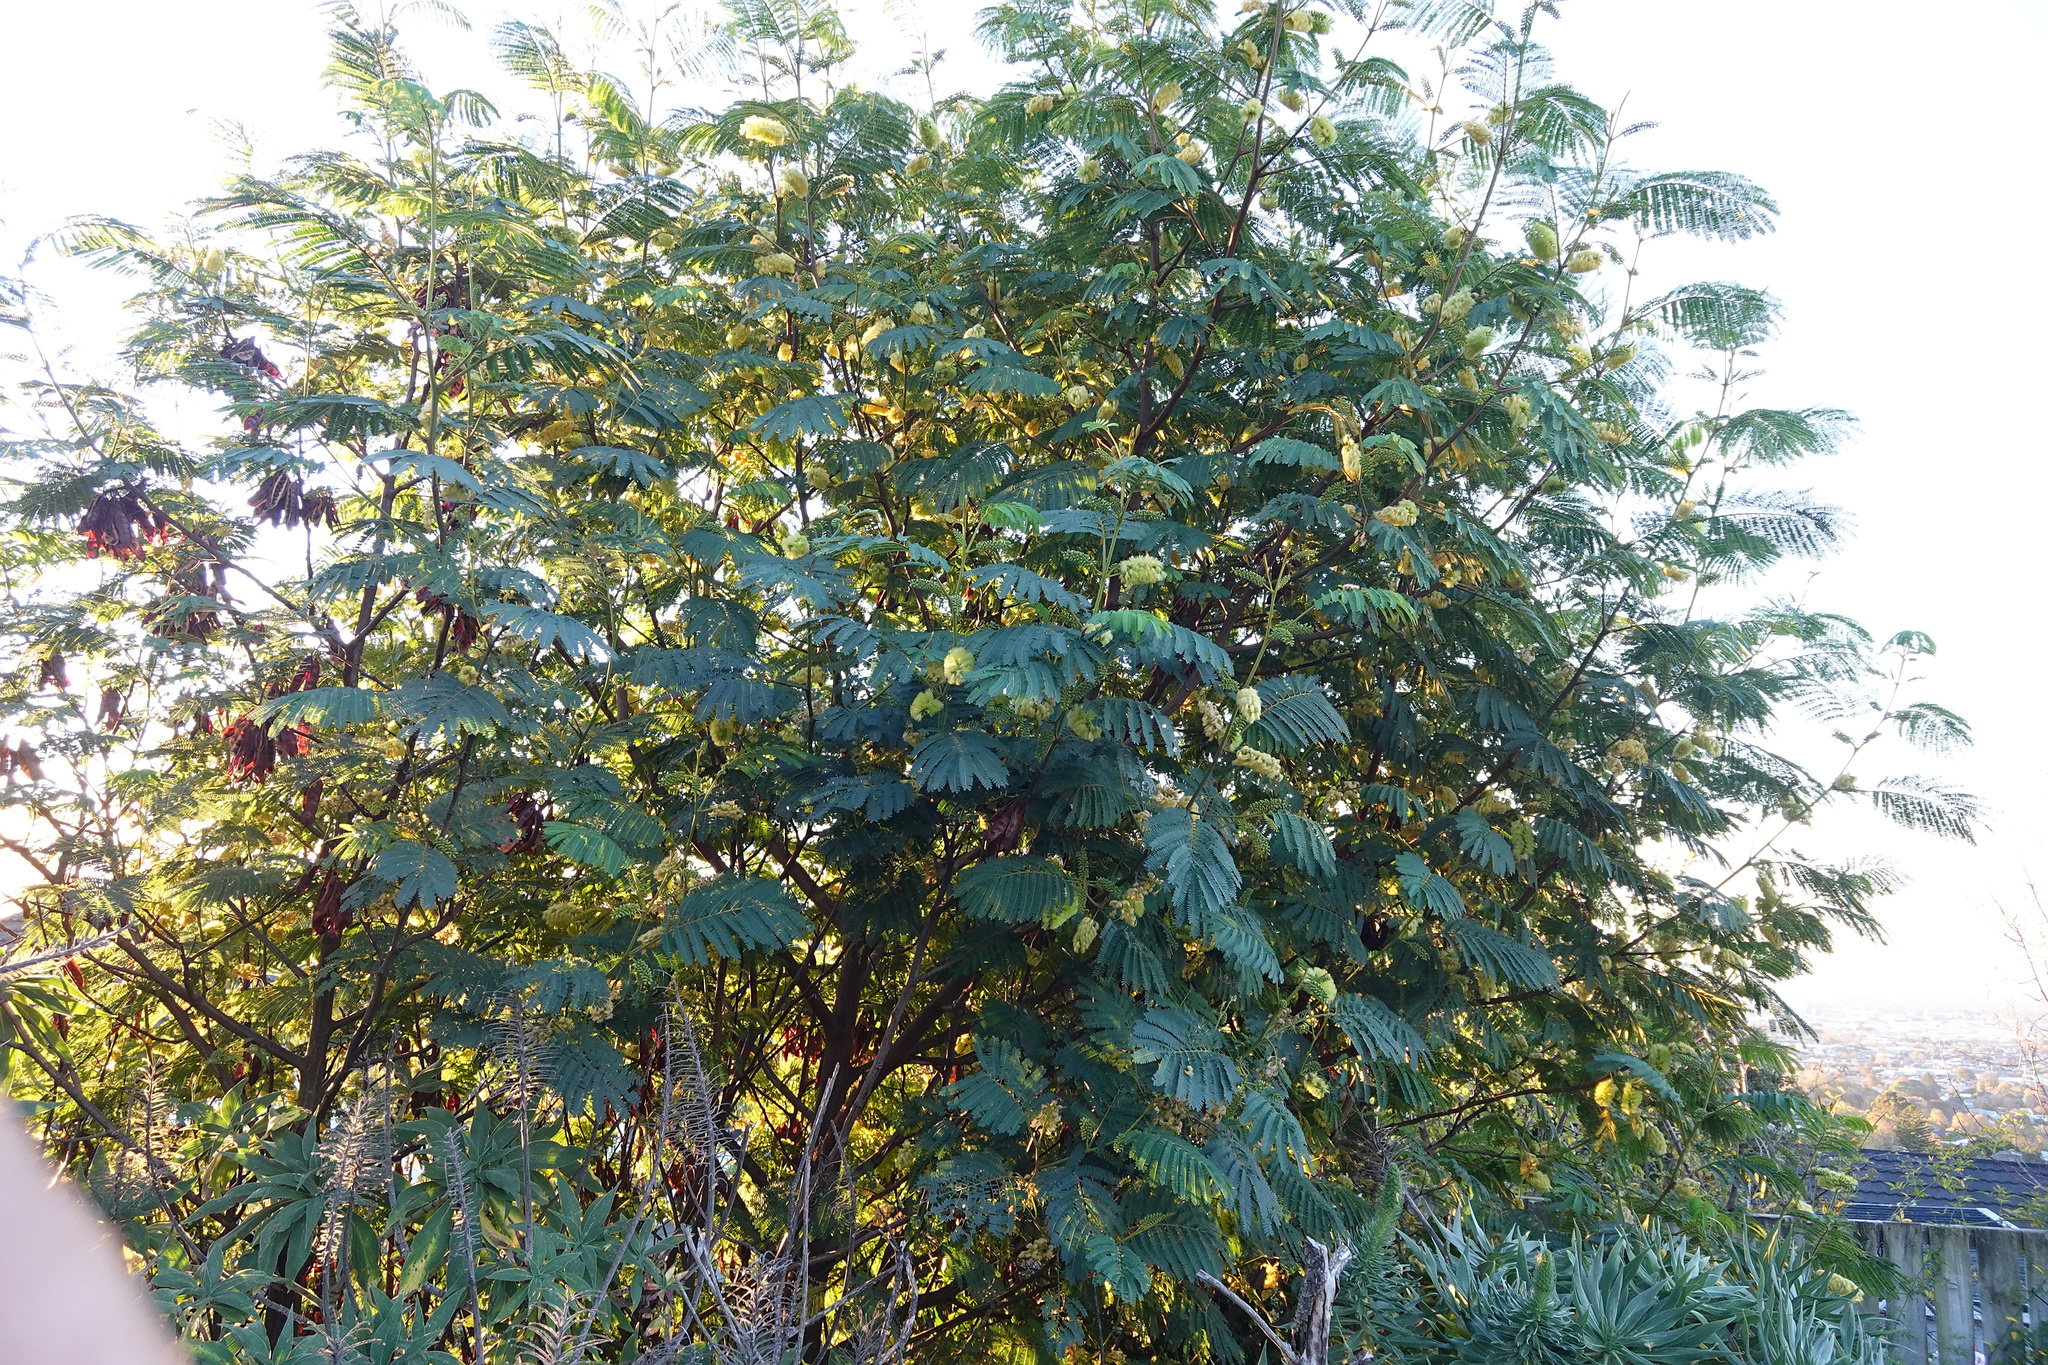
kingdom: Plantae
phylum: Tracheophyta
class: Magnoliopsida
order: Fabales
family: Fabaceae
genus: Paraserianthes
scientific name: Paraserianthes lophantha
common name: Plume albizia
